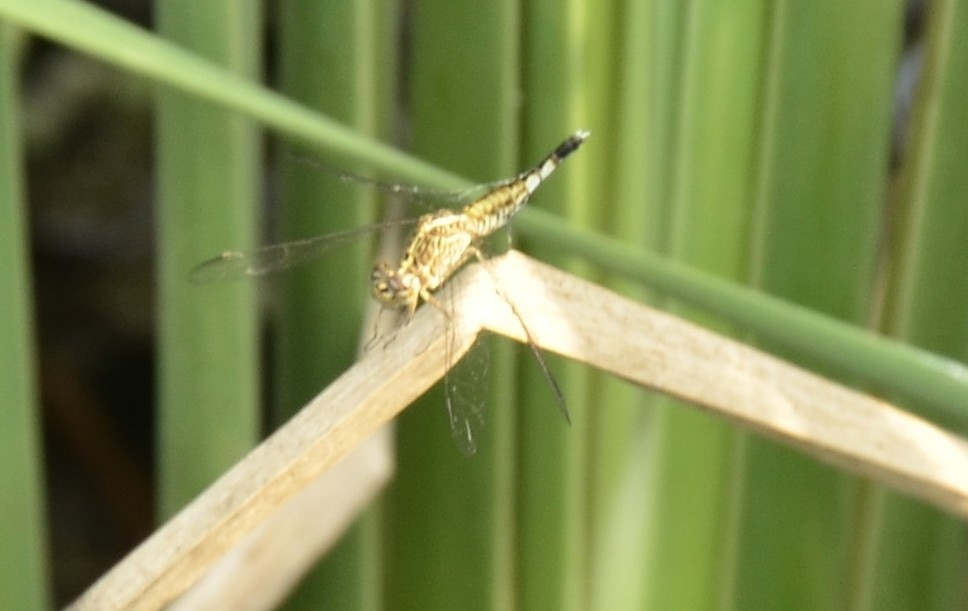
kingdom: Animalia
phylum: Arthropoda
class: Insecta
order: Odonata
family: Libellulidae
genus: Acisoma
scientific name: Acisoma panorpoides
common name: Asian pintail
